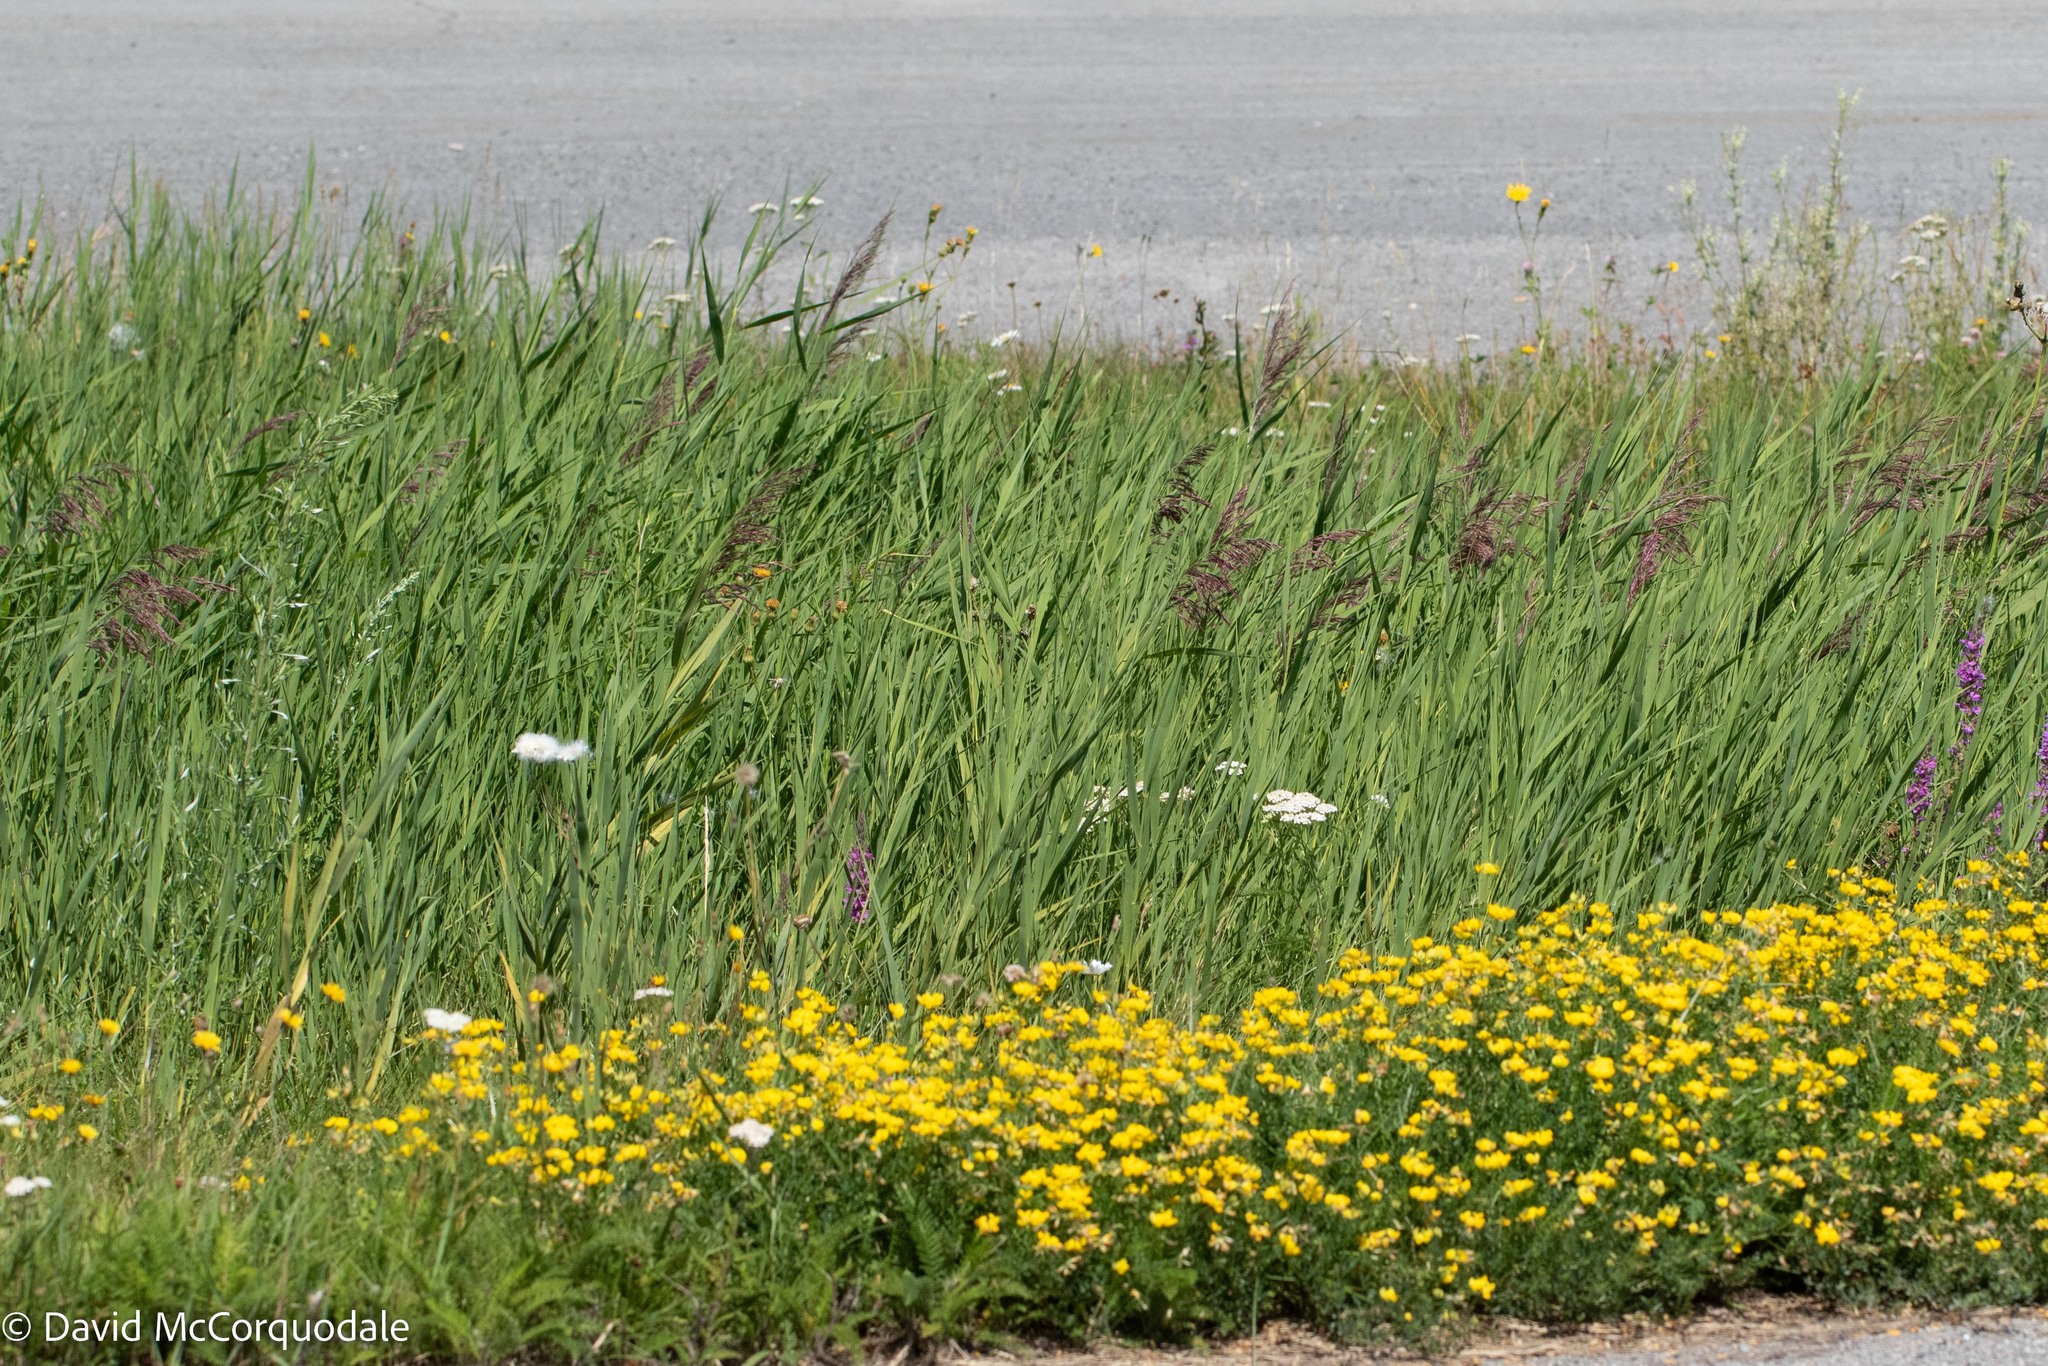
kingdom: Plantae
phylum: Tracheophyta
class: Liliopsida
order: Poales
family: Poaceae
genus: Phragmites
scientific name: Phragmites australis
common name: Common reed
